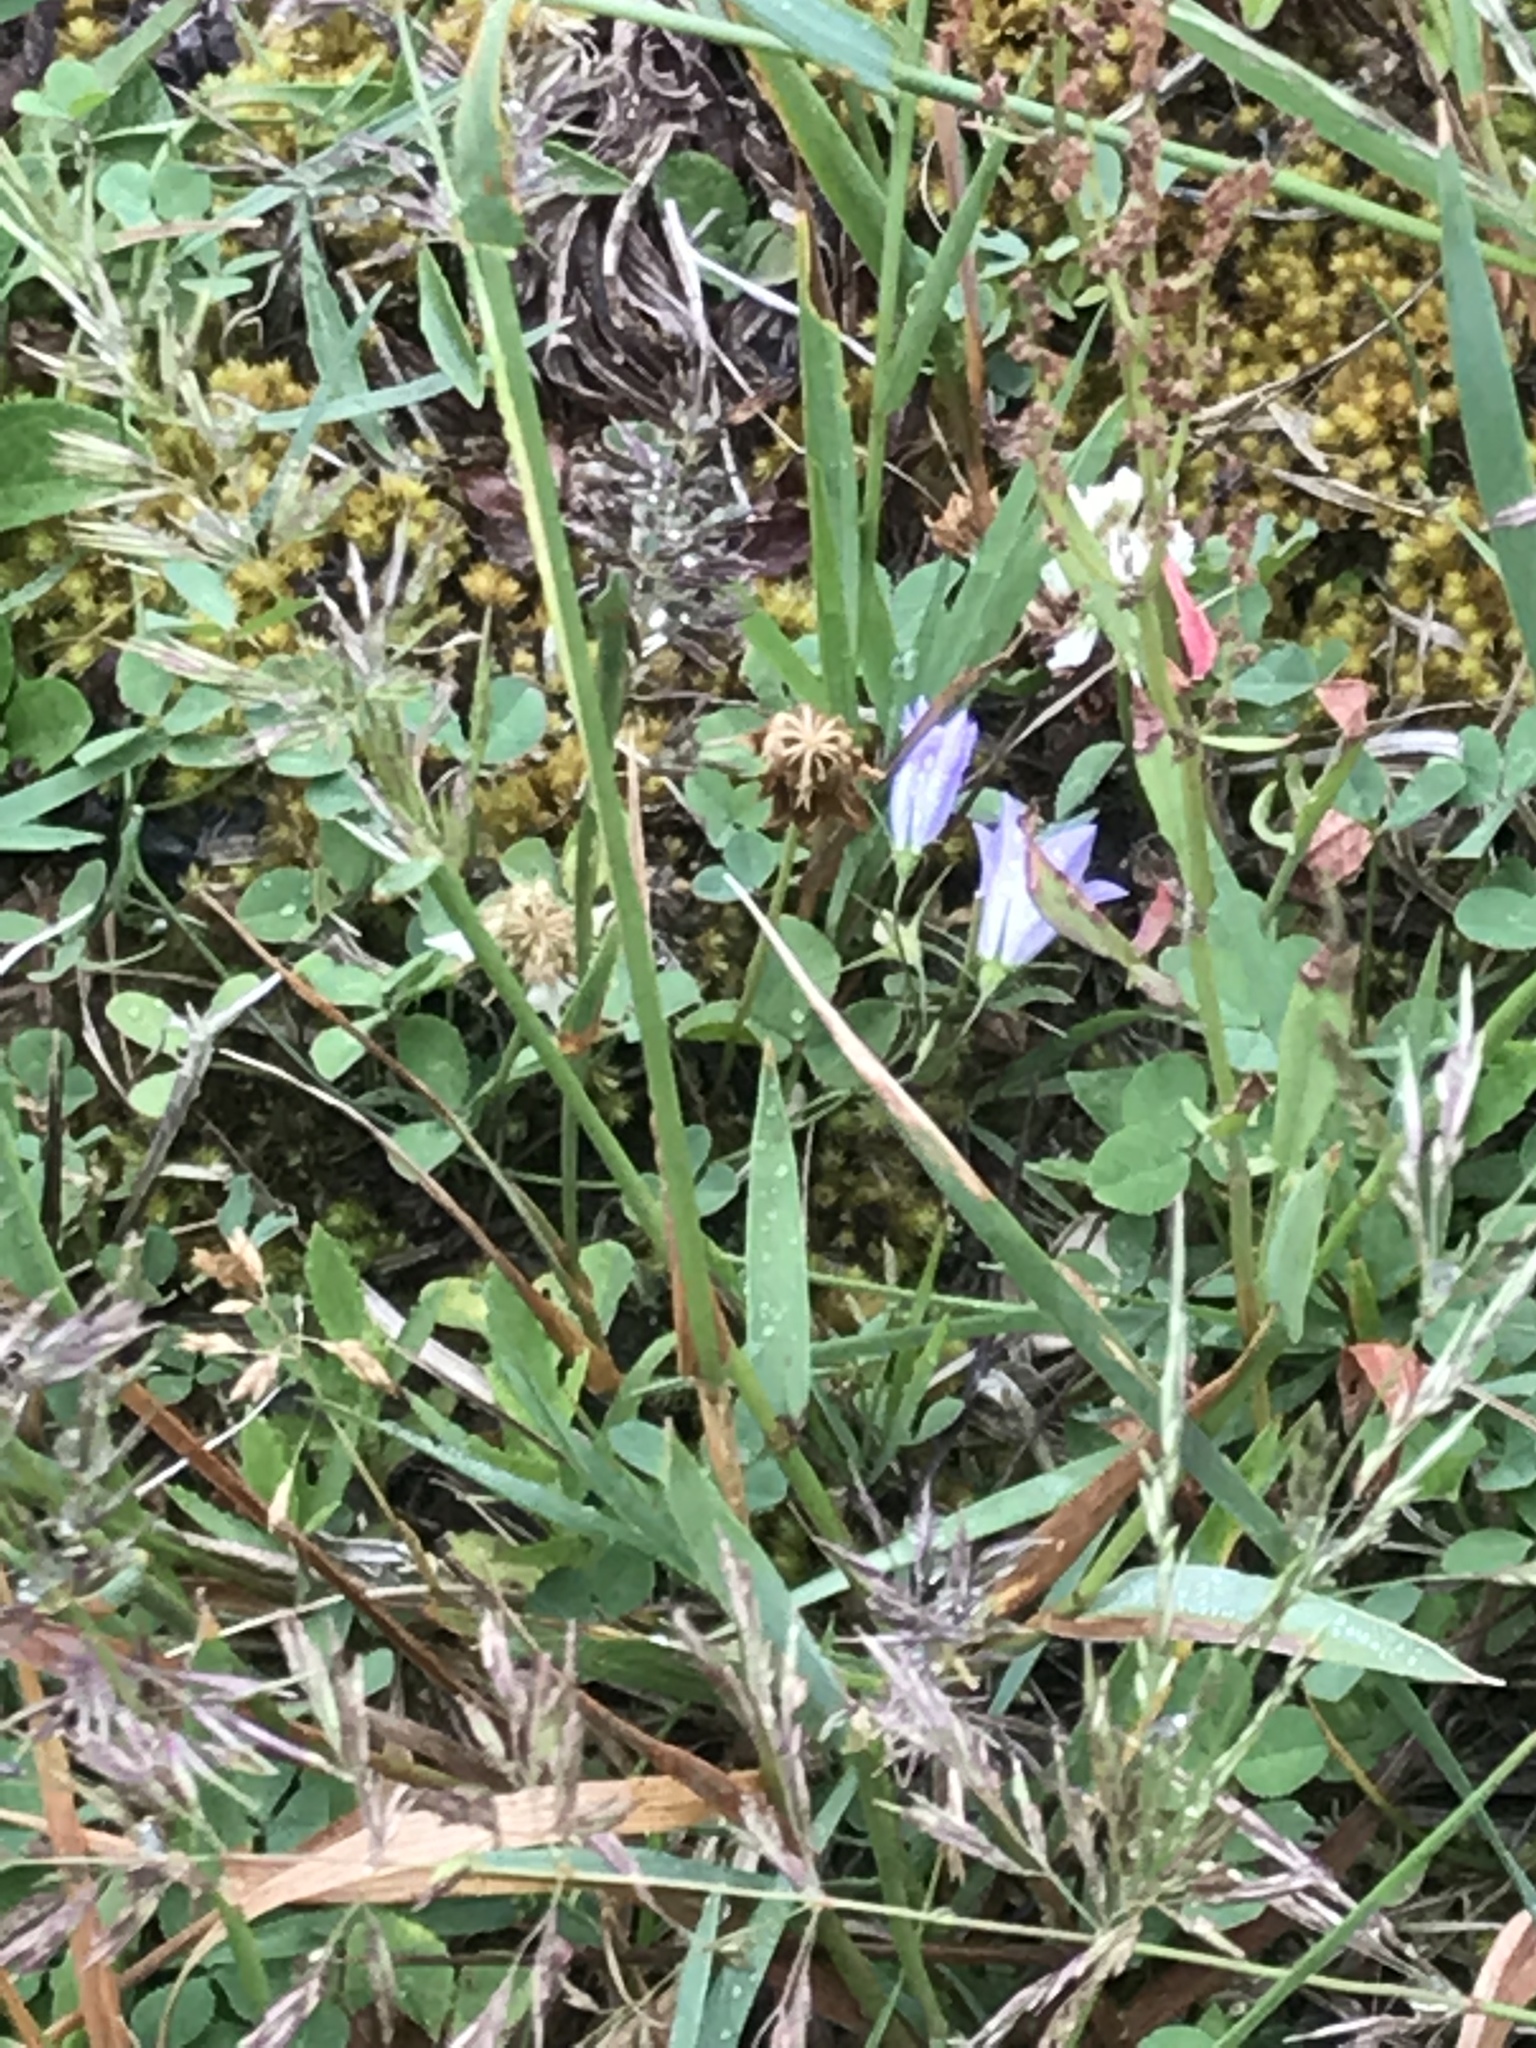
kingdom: Plantae
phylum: Tracheophyta
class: Magnoliopsida
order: Asterales
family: Campanulaceae
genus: Campanula
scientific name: Campanula
